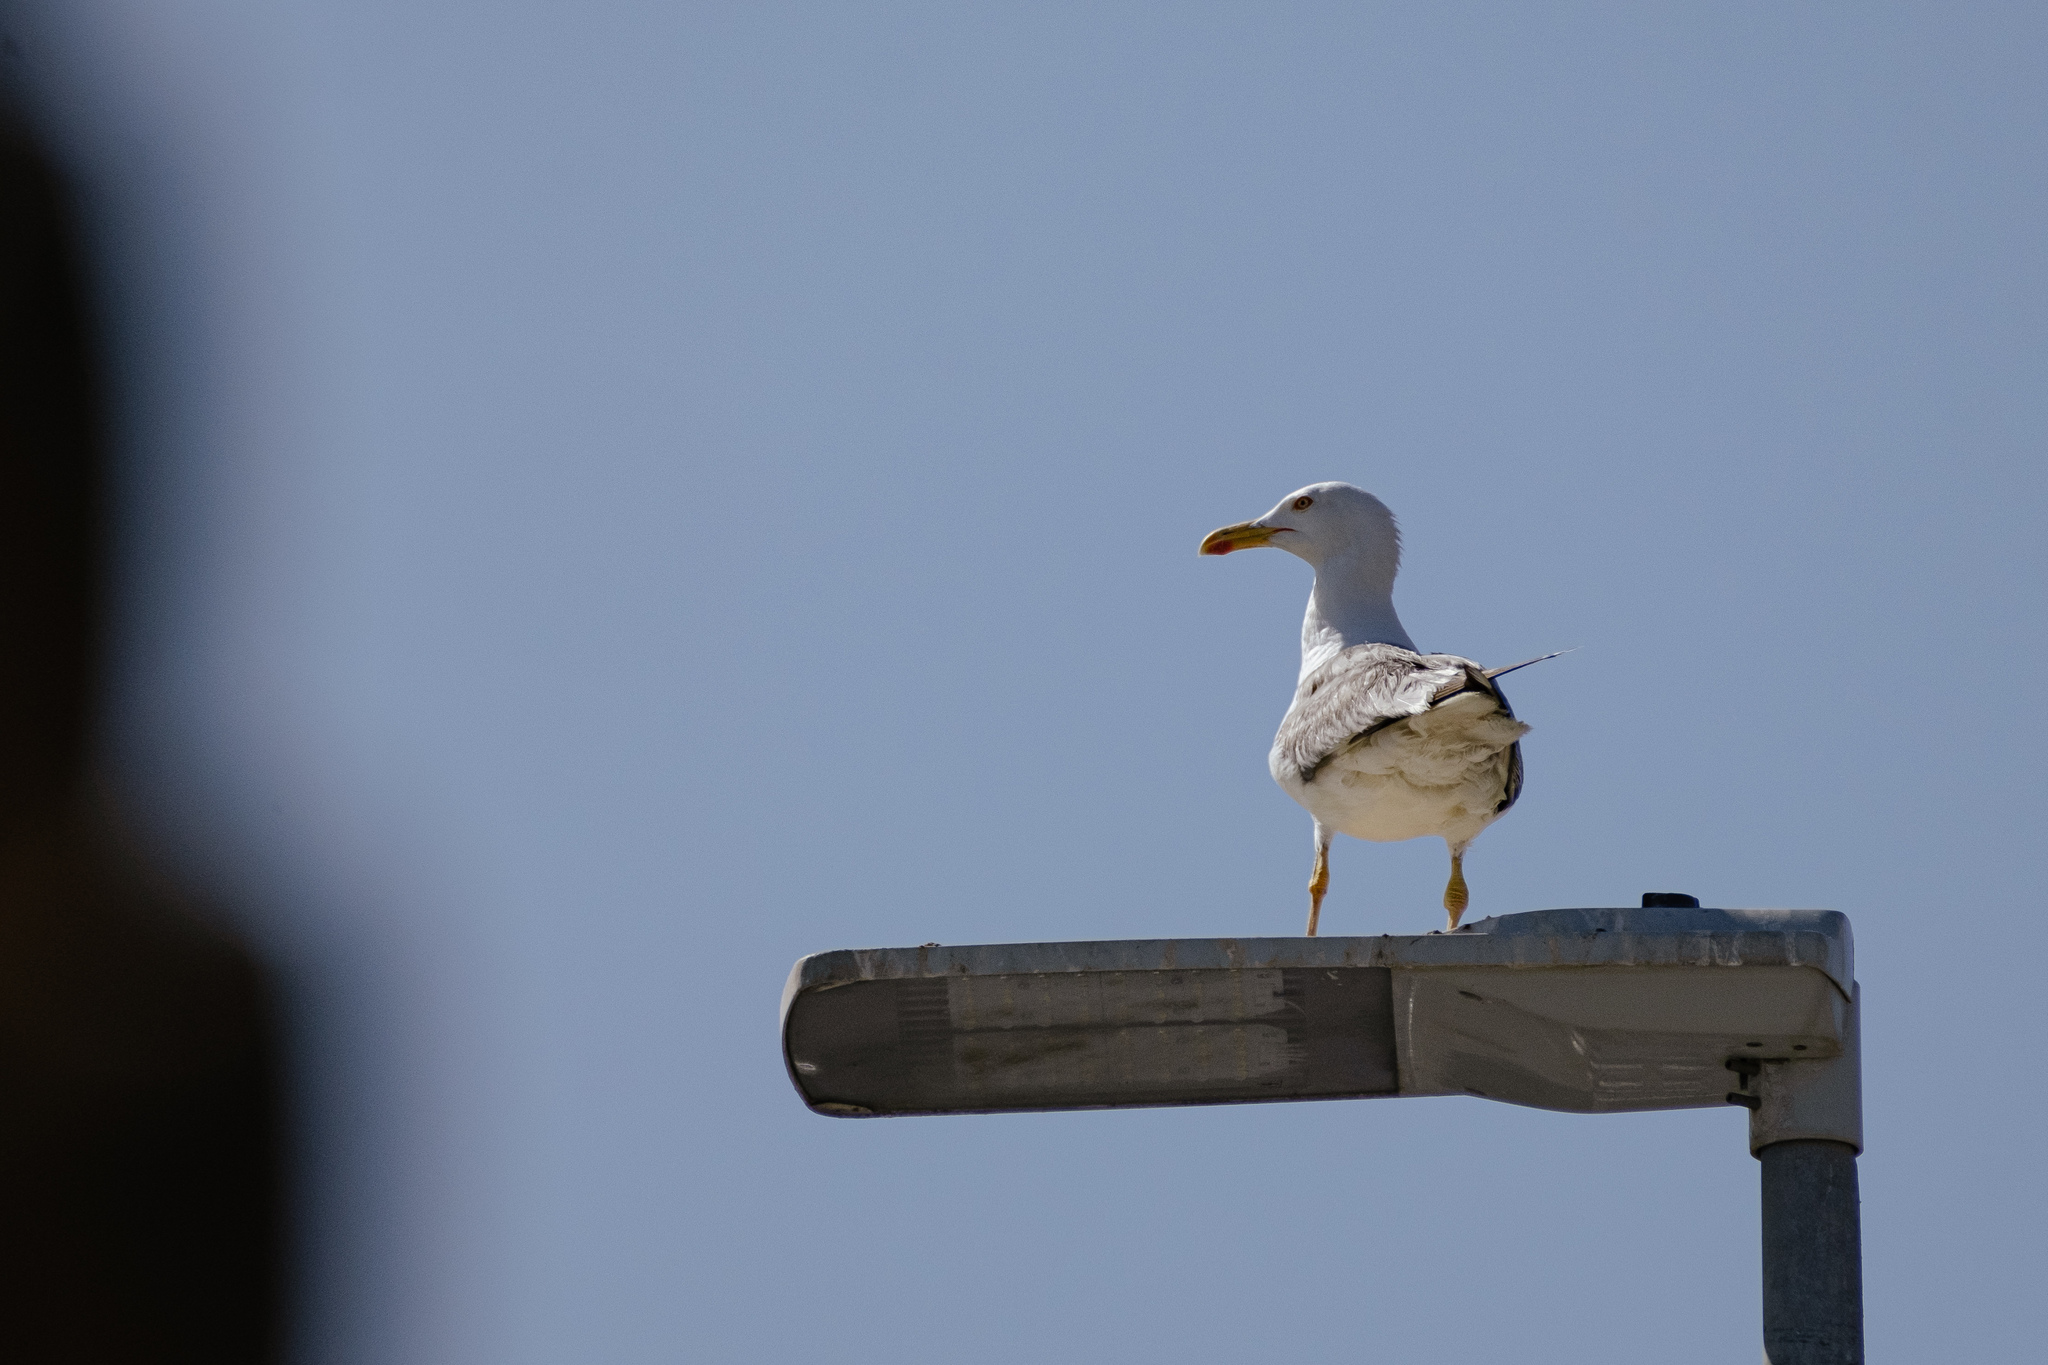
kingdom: Animalia
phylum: Chordata
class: Aves
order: Charadriiformes
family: Laridae
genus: Larus
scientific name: Larus michahellis
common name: Yellow-legged gull
